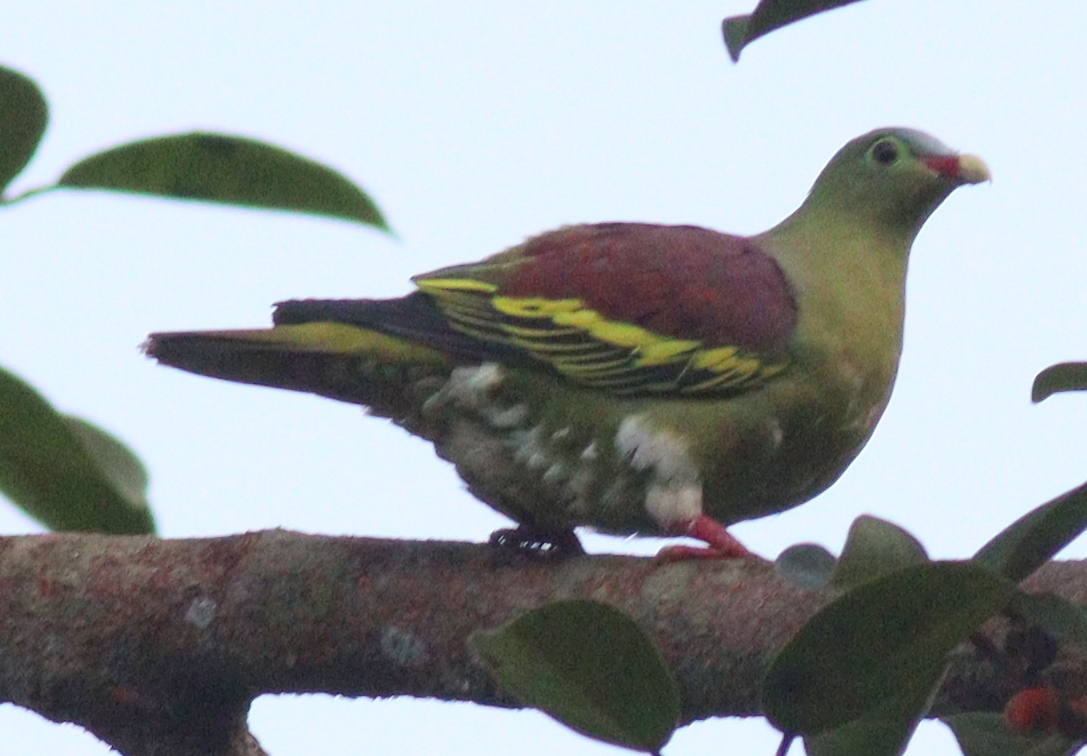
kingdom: Animalia
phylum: Chordata
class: Aves
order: Columbiformes
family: Columbidae
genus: Treron
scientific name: Treron curvirostra
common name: Thick-billed green pigeon
